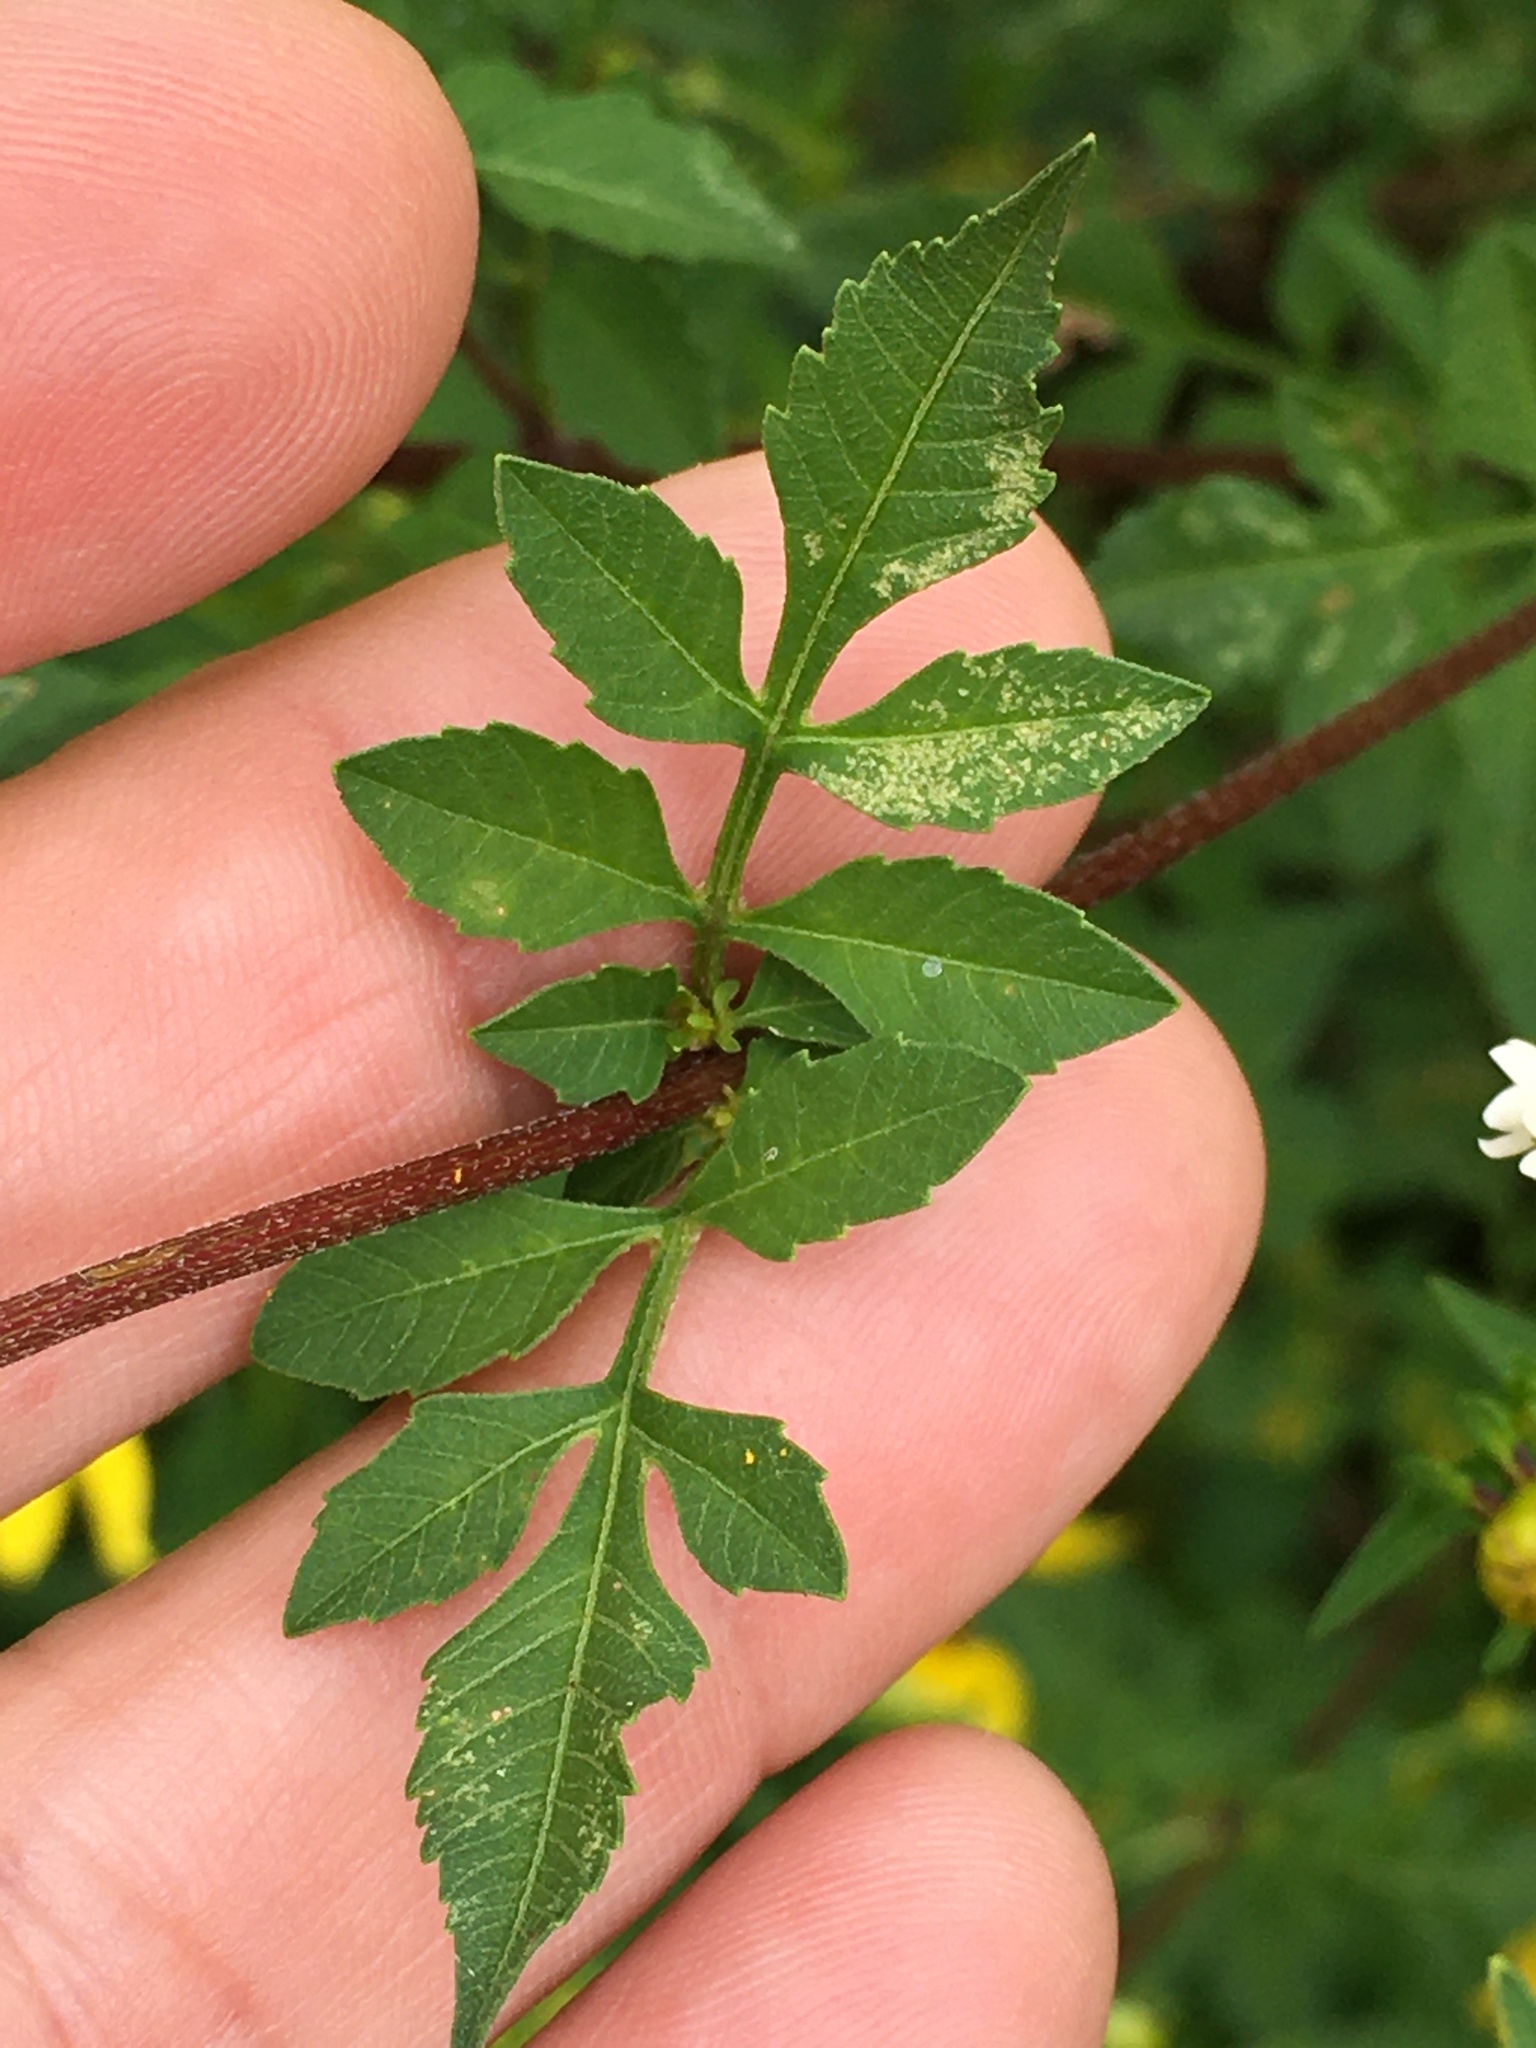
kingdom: Plantae
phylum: Tracheophyta
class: Magnoliopsida
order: Asterales
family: Asteraceae
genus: Bidens
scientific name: Bidens aristosa
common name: Western tickseed
